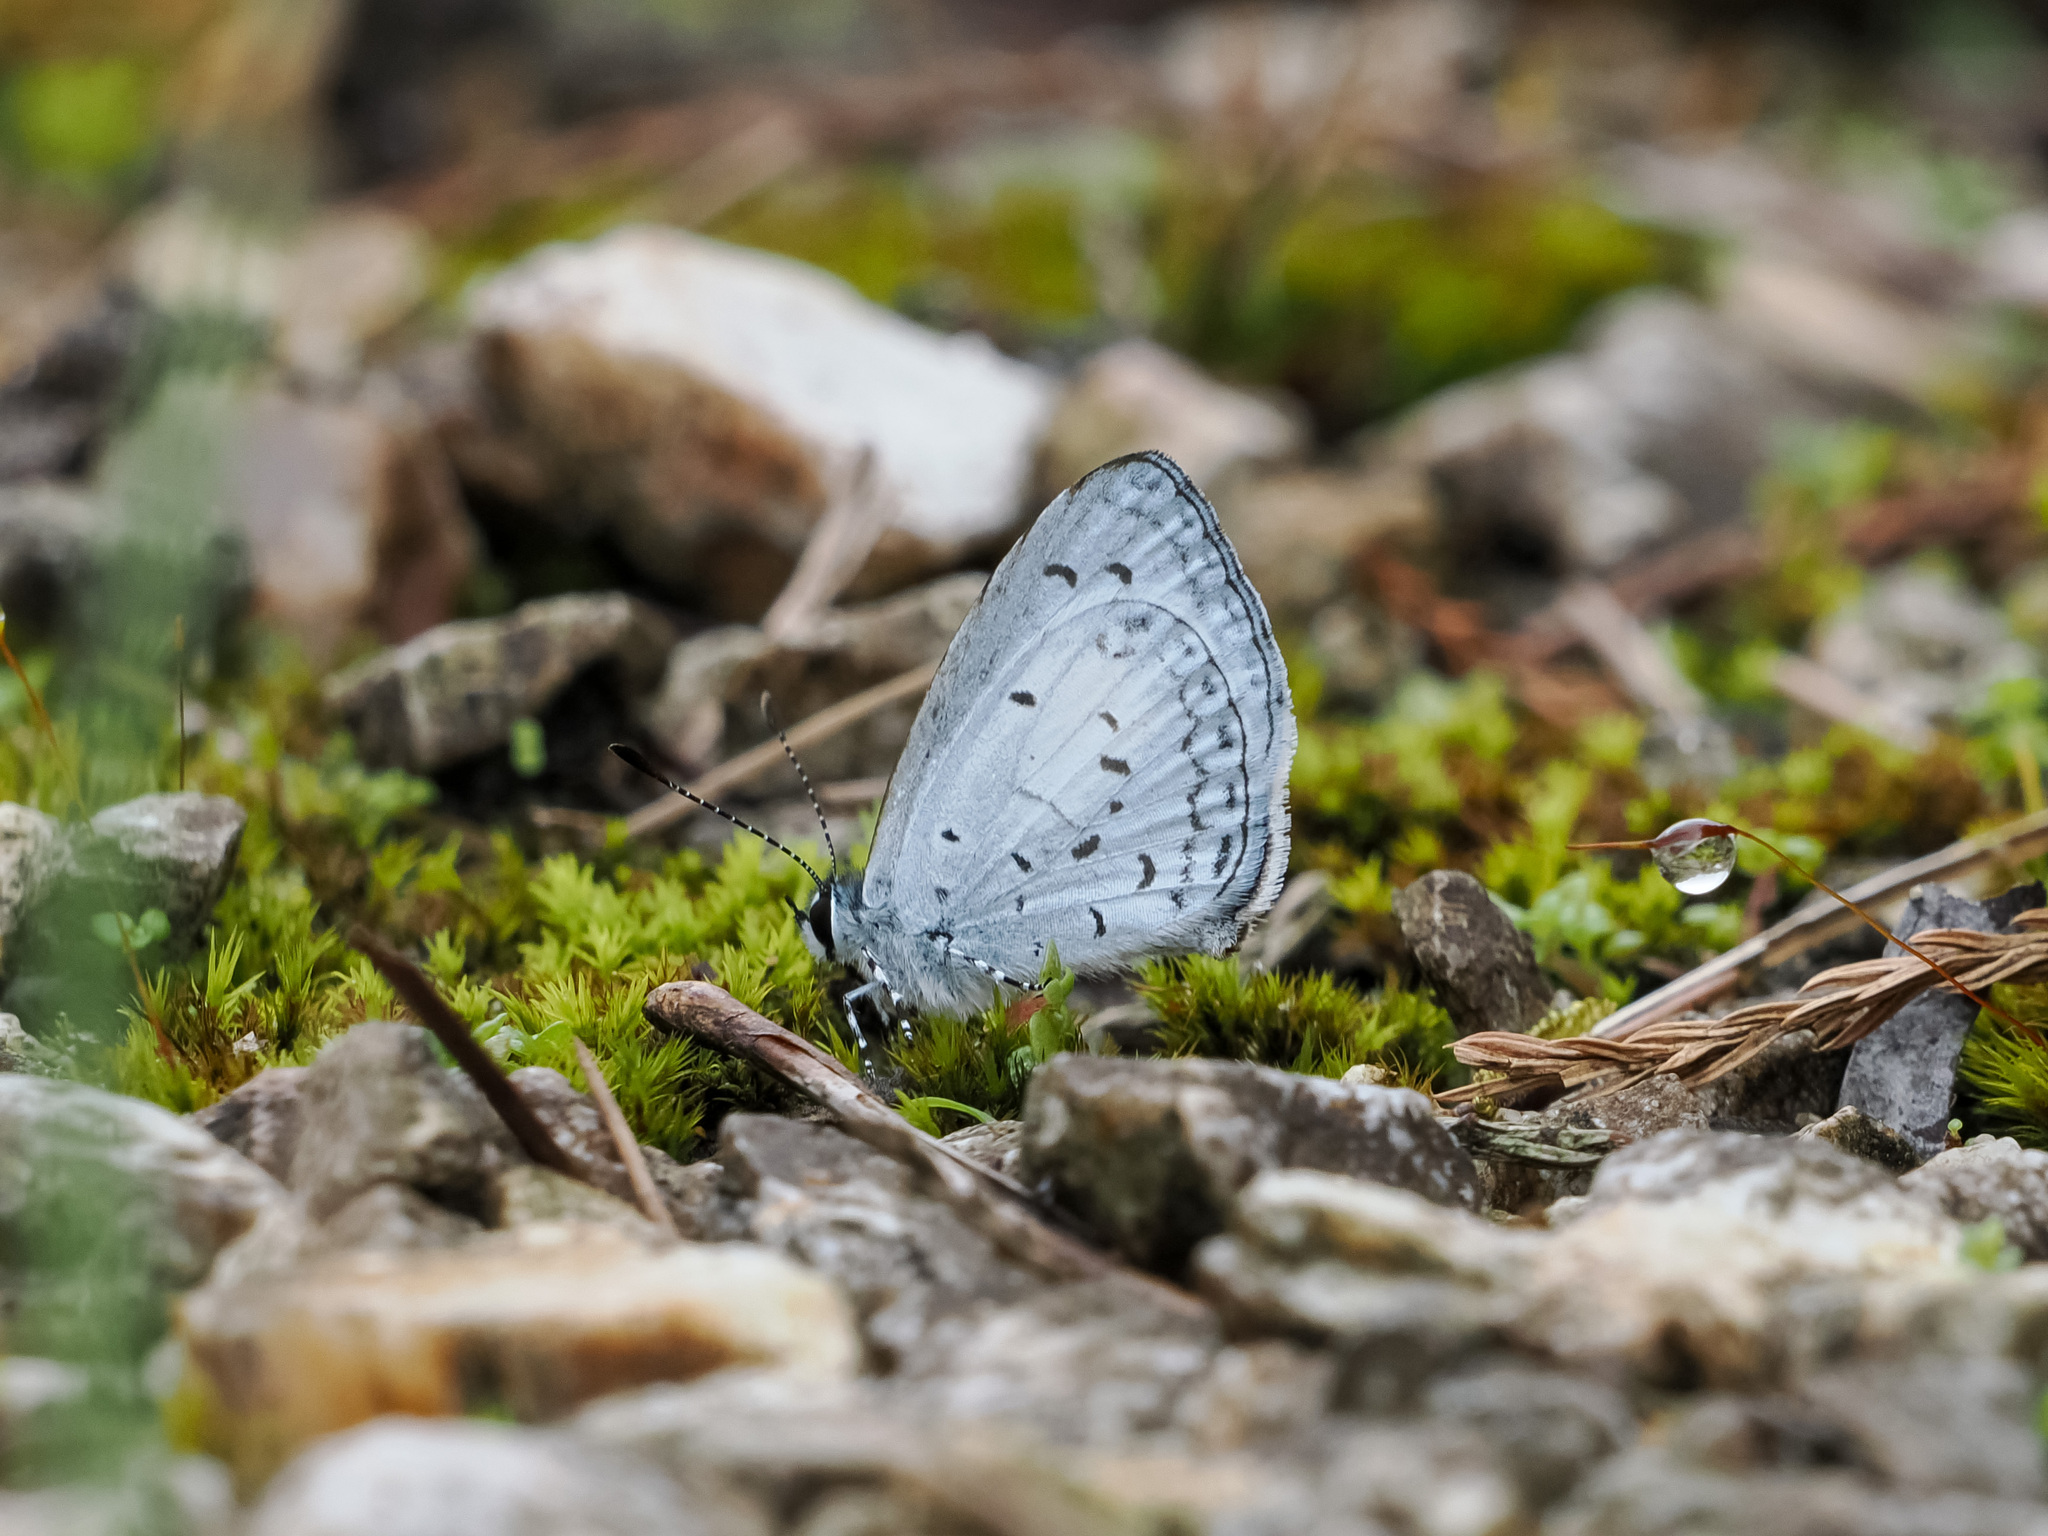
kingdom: Animalia
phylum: Arthropoda
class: Insecta
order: Lepidoptera
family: Lycaenidae
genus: Oreolyce
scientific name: Oreolyce nearcha
